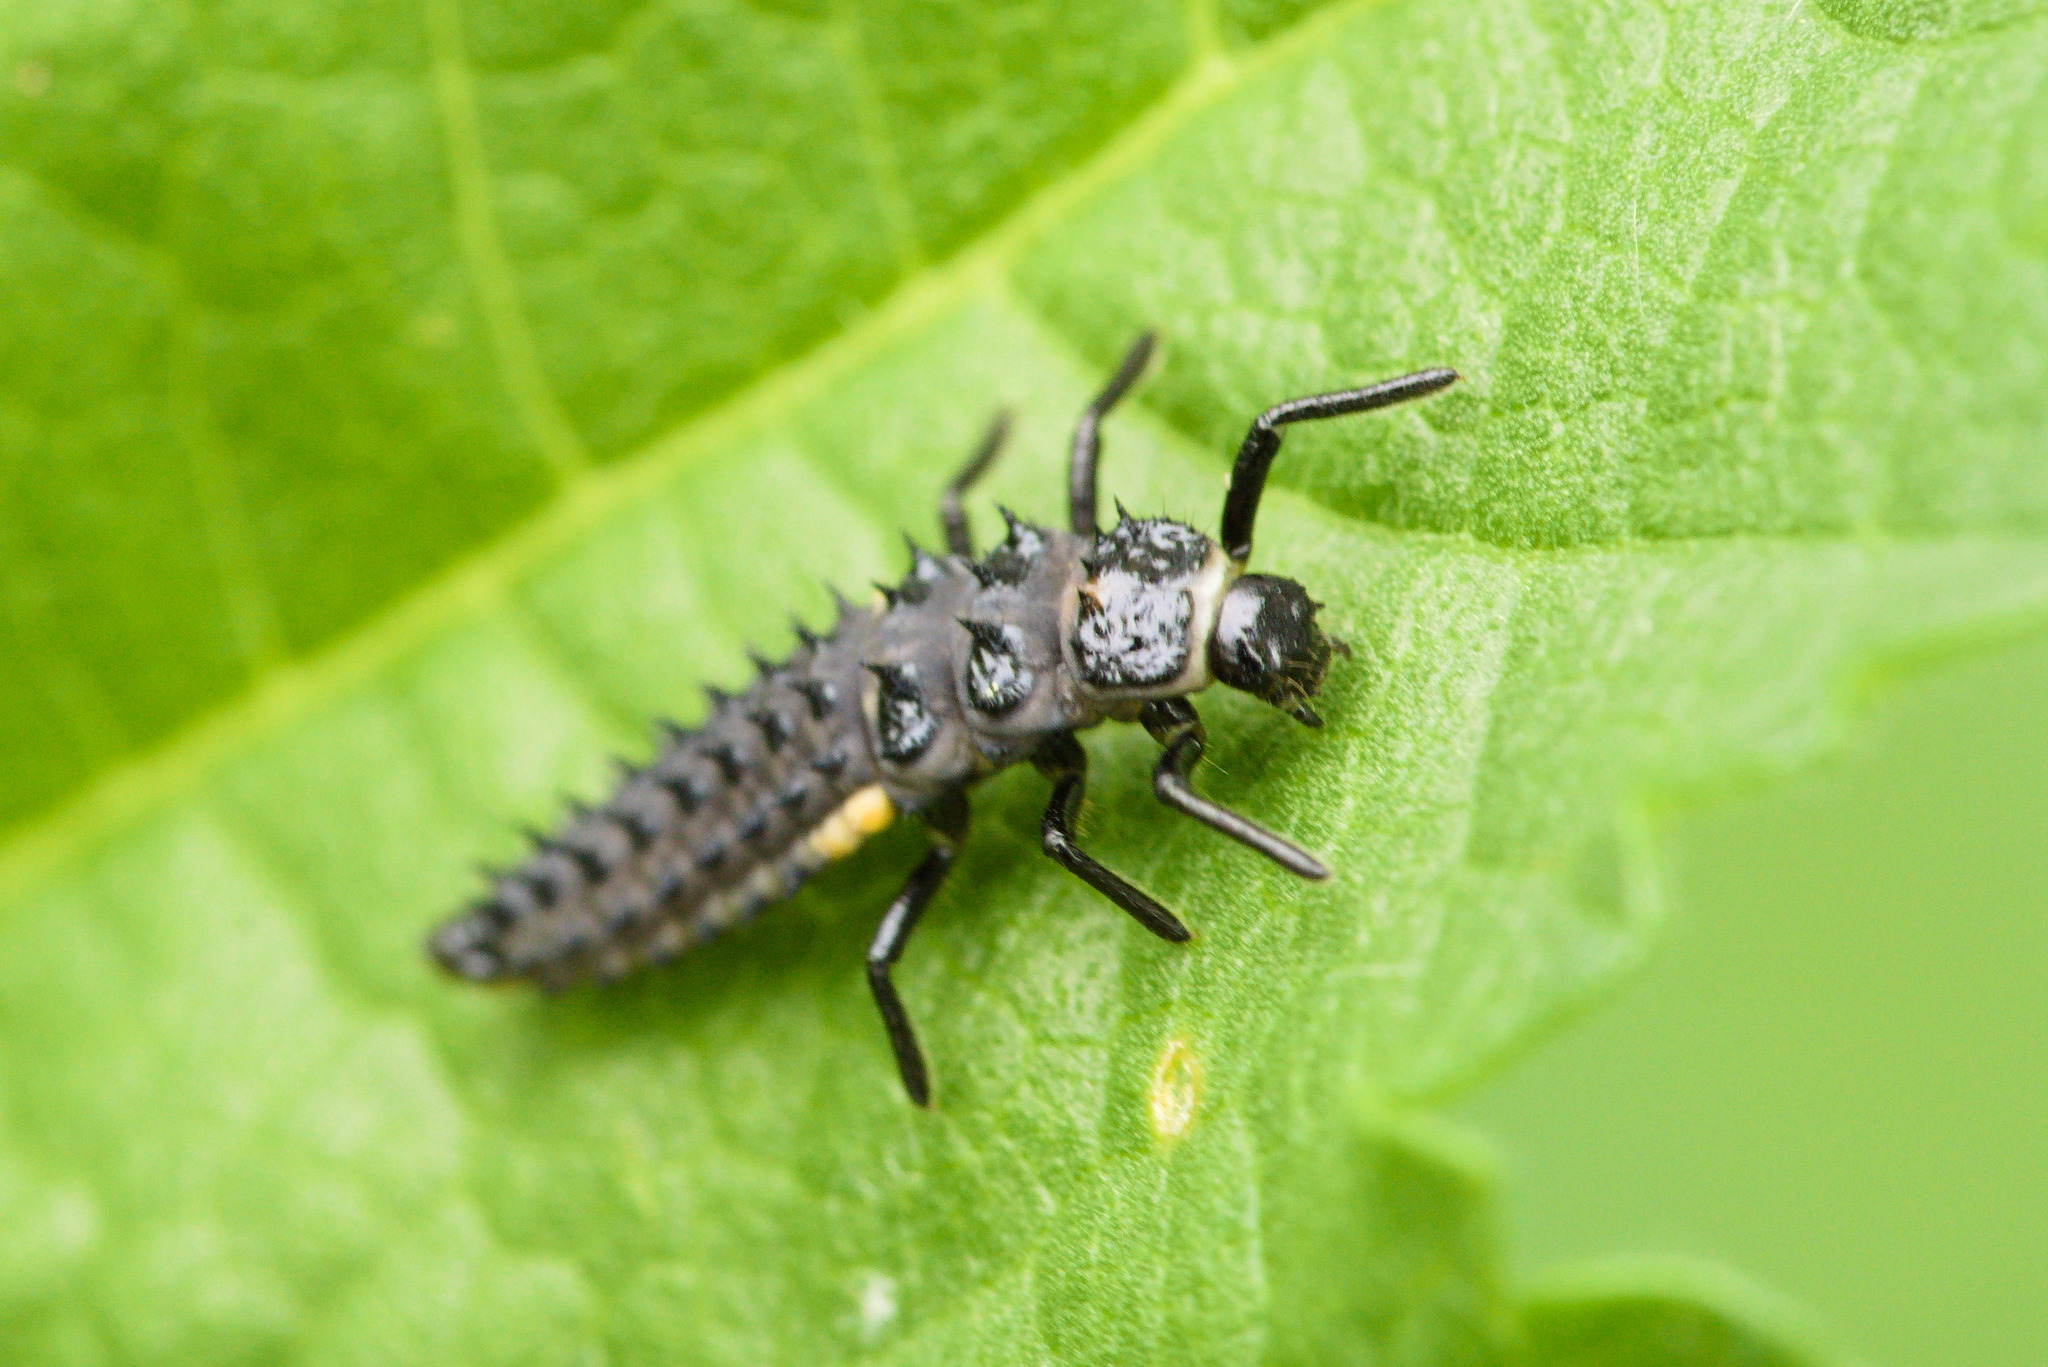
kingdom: Animalia
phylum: Arthropoda
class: Insecta
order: Coleoptera
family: Coccinellidae
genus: Anatis
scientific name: Anatis ocellata
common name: Eyed ladybird
